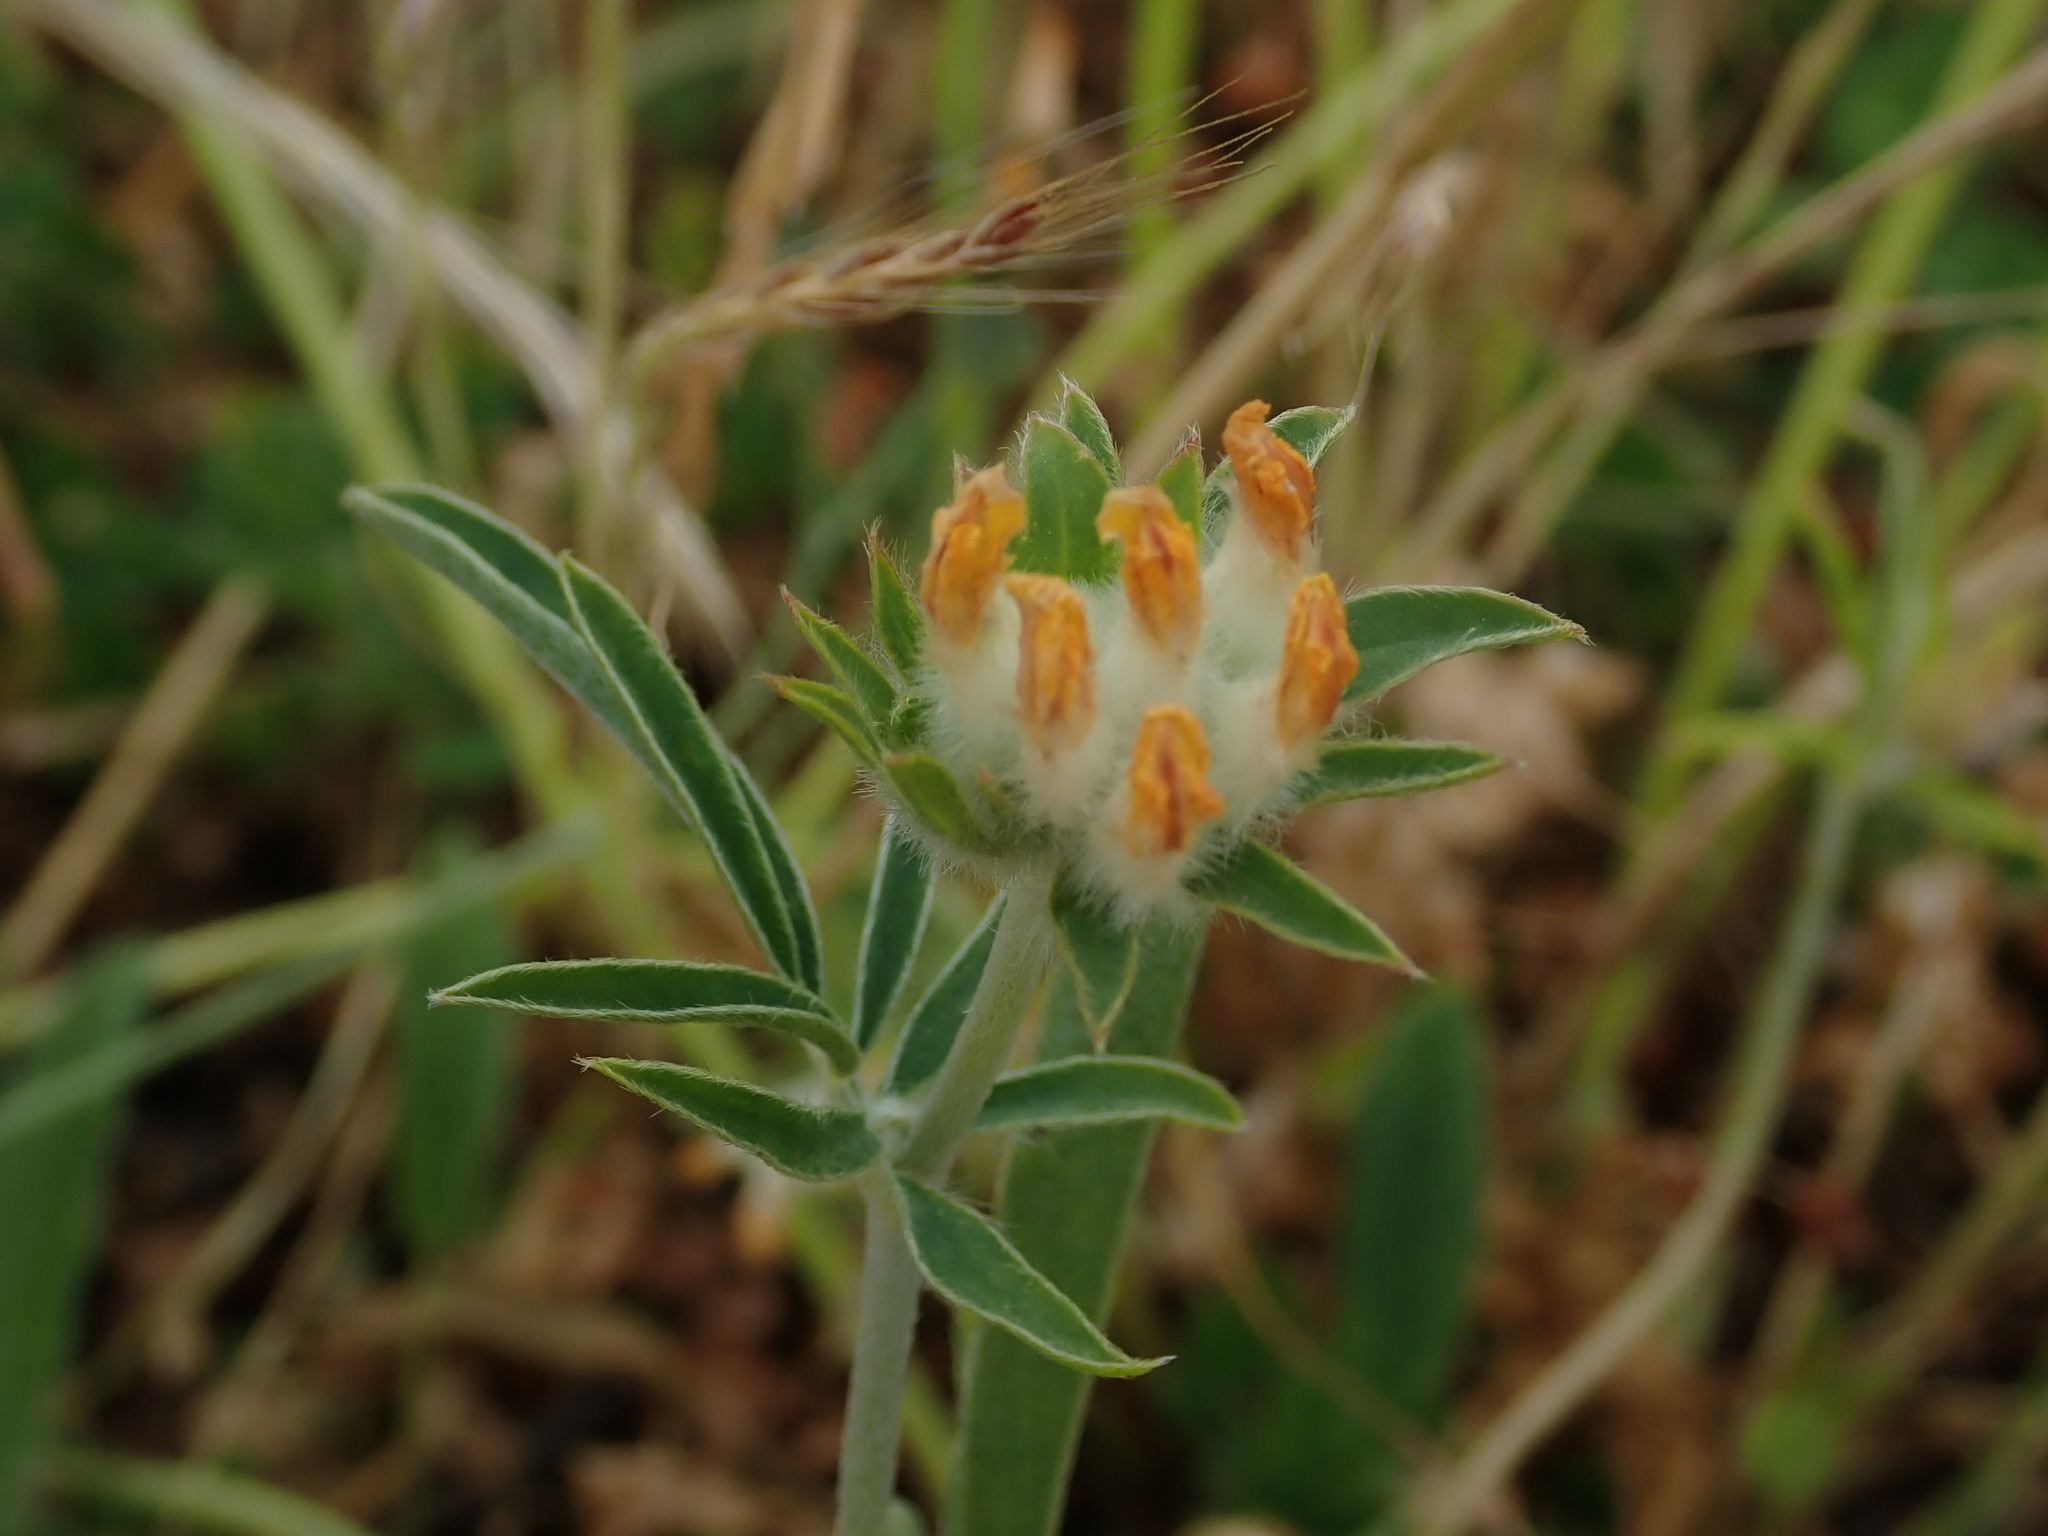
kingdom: Plantae
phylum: Tracheophyta
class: Magnoliopsida
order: Fabales
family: Fabaceae
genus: Anthyllis
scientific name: Anthyllis vulneraria
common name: Kidney vetch
